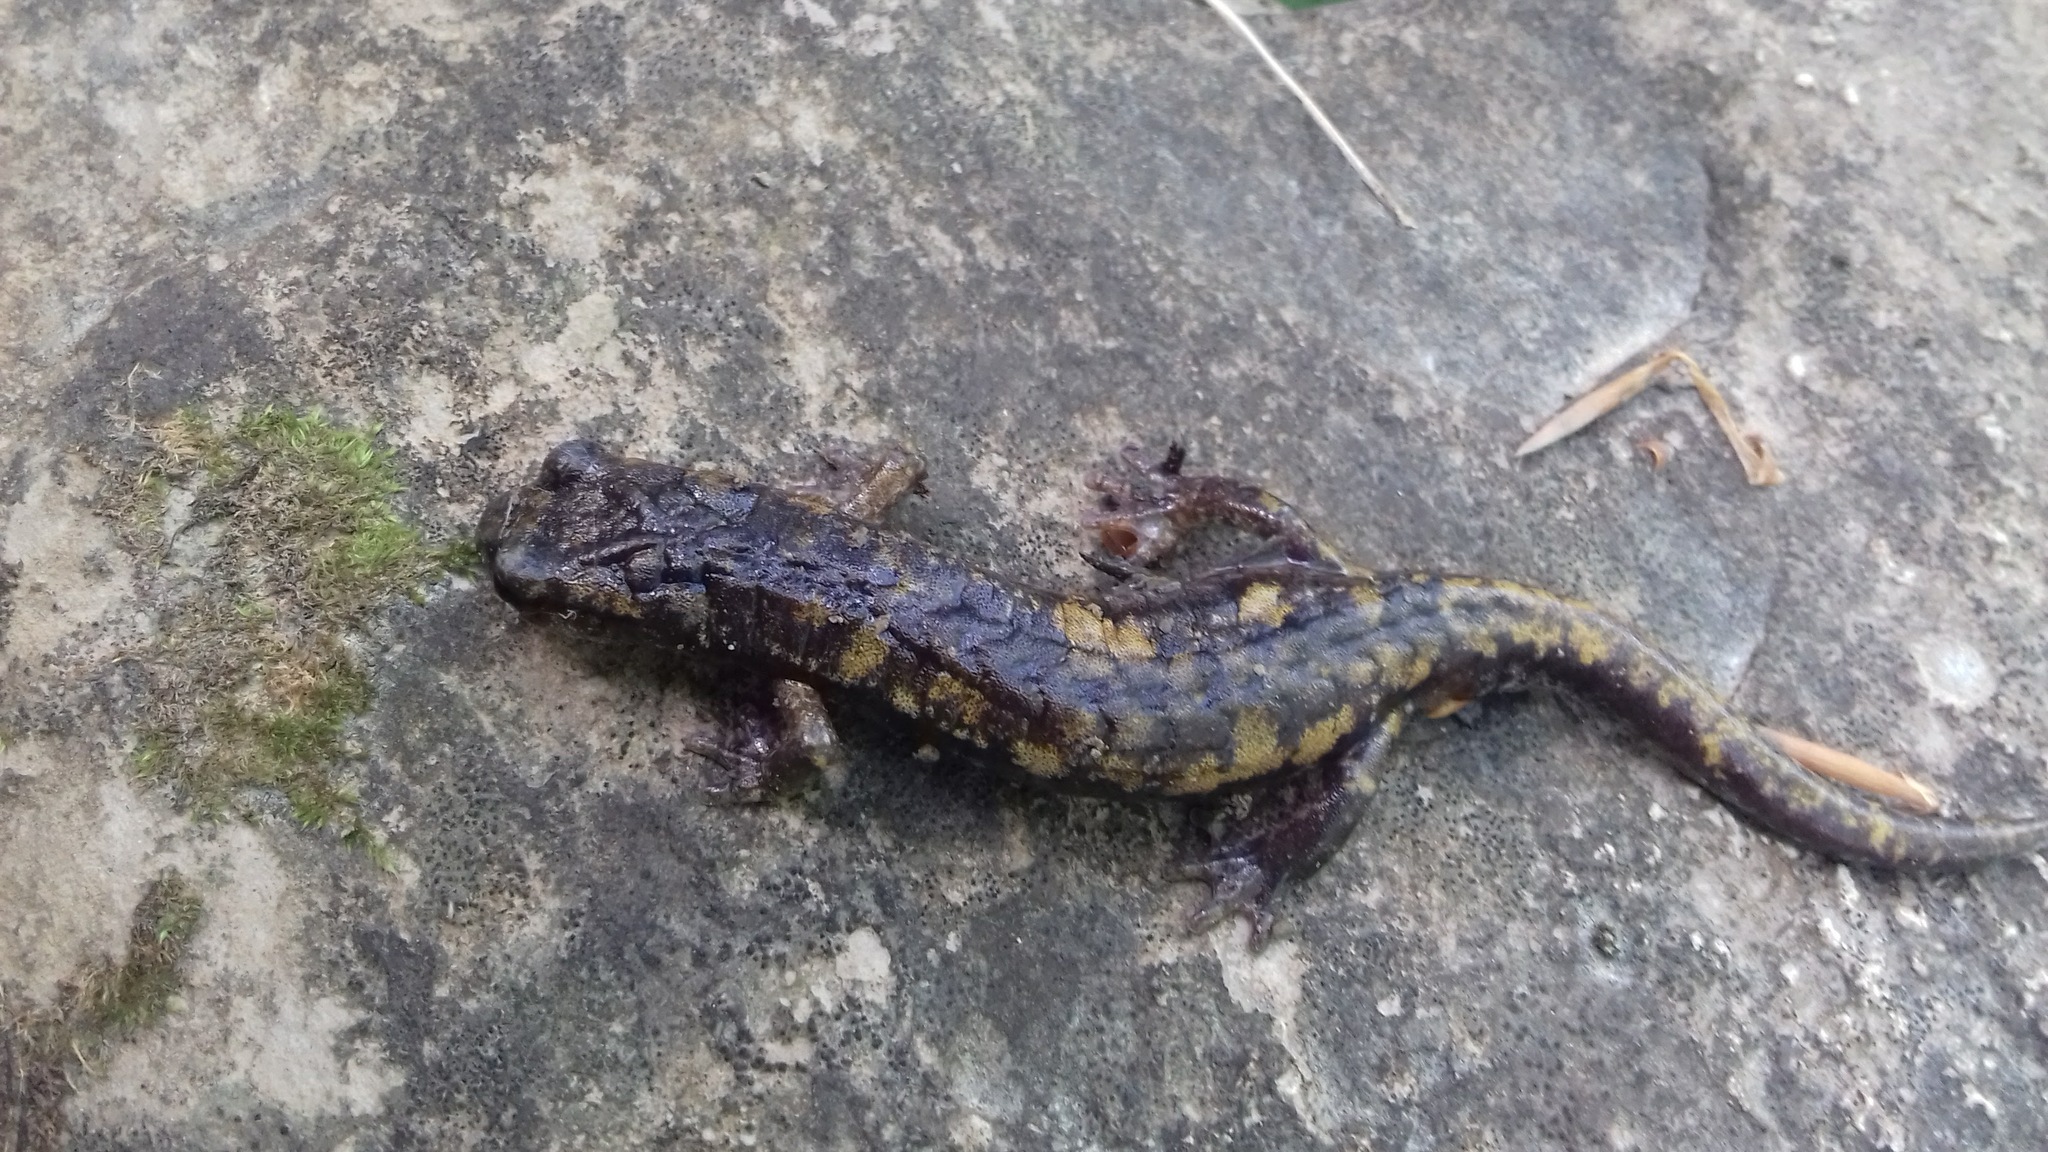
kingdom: Animalia
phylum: Chordata
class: Amphibia
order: Caudata
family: Plethodontidae
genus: Speleomantes
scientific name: Speleomantes strinatii
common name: French cave salamander
